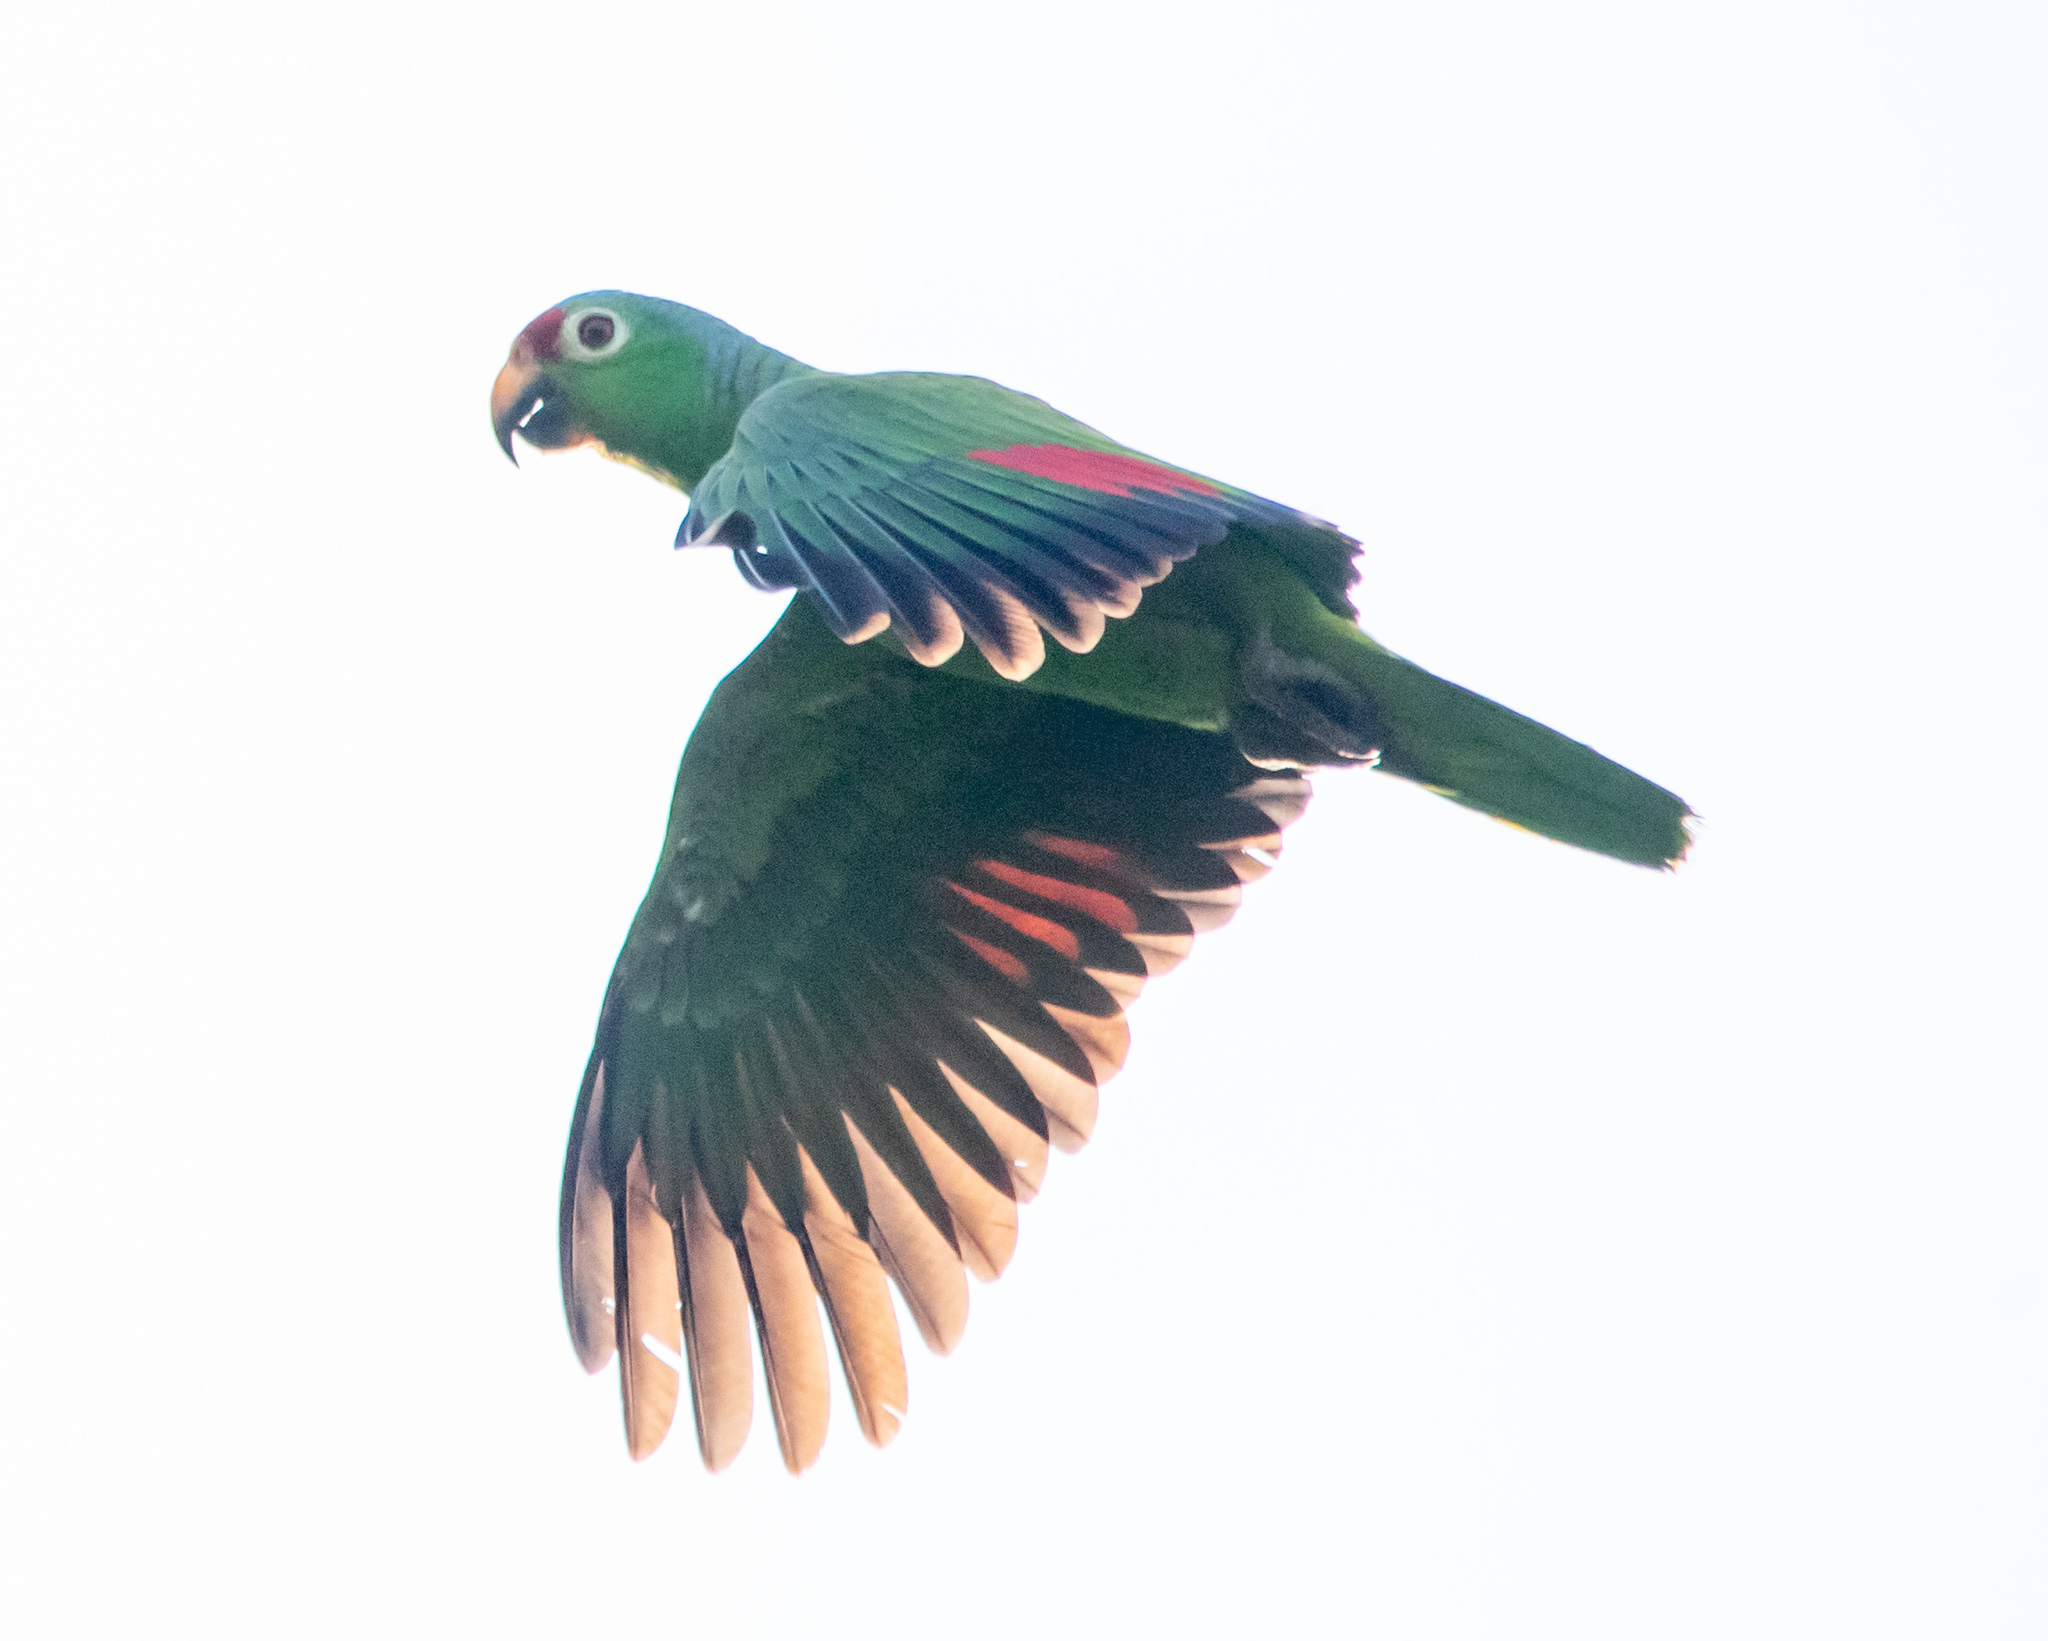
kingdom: Animalia
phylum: Chordata
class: Aves
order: Psittaciformes
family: Psittacidae
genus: Amazona
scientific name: Amazona autumnalis
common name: Red-lored amazon
